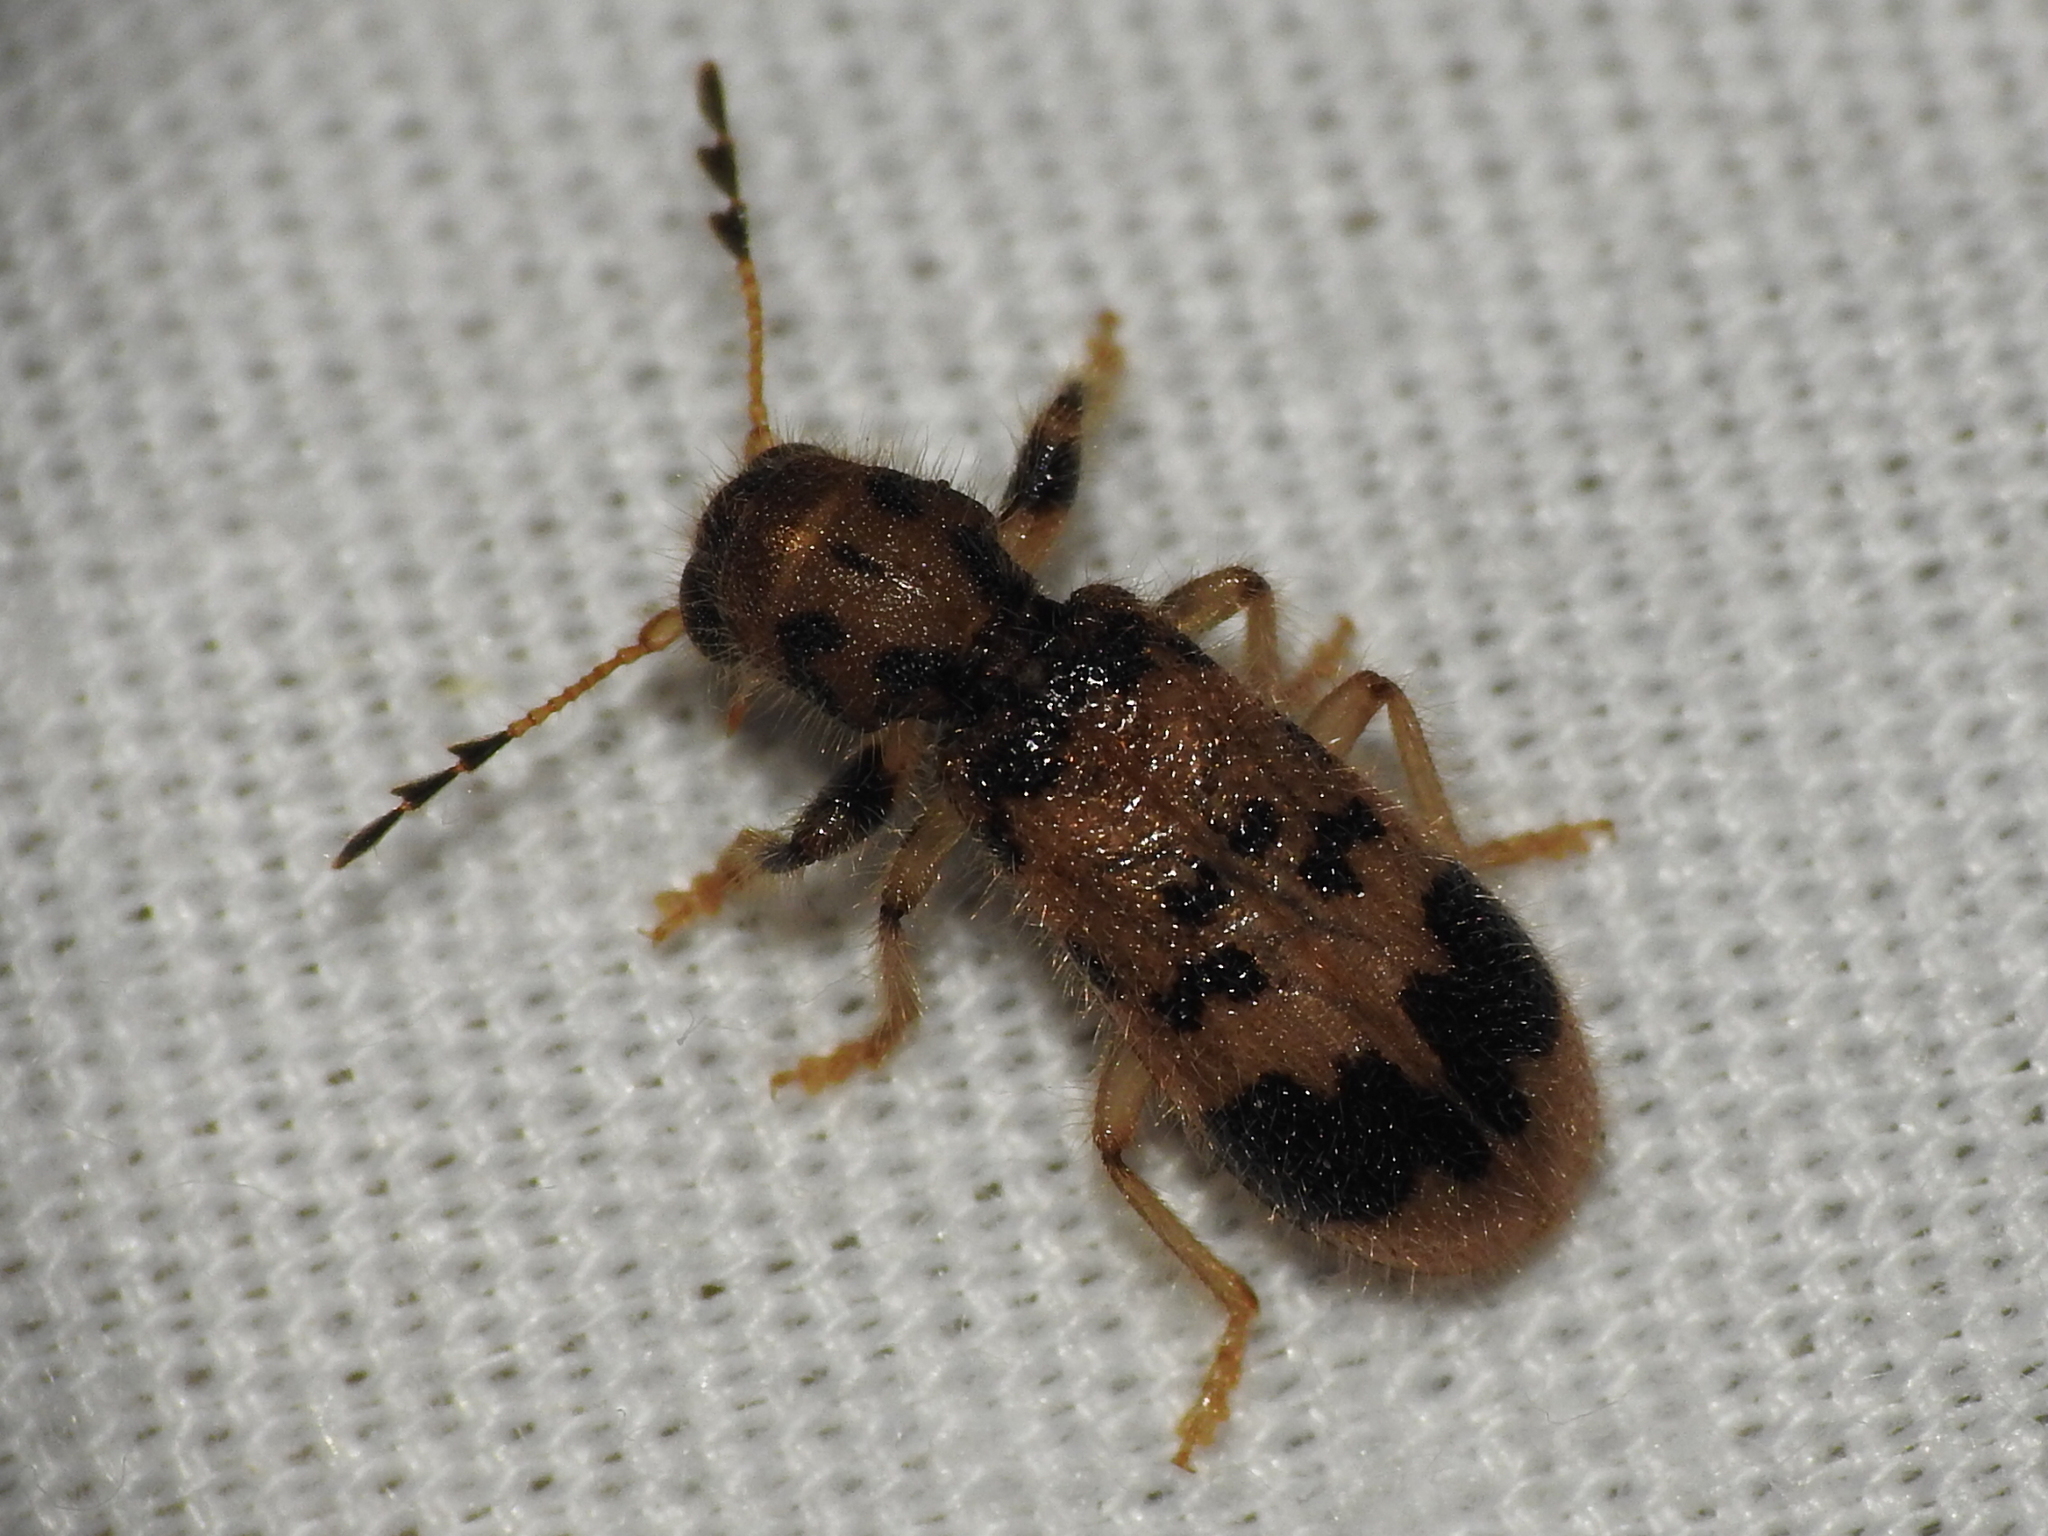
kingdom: Animalia
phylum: Arthropoda
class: Insecta
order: Coleoptera
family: Cleridae
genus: Pelonium
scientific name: Pelonium maculicolle
